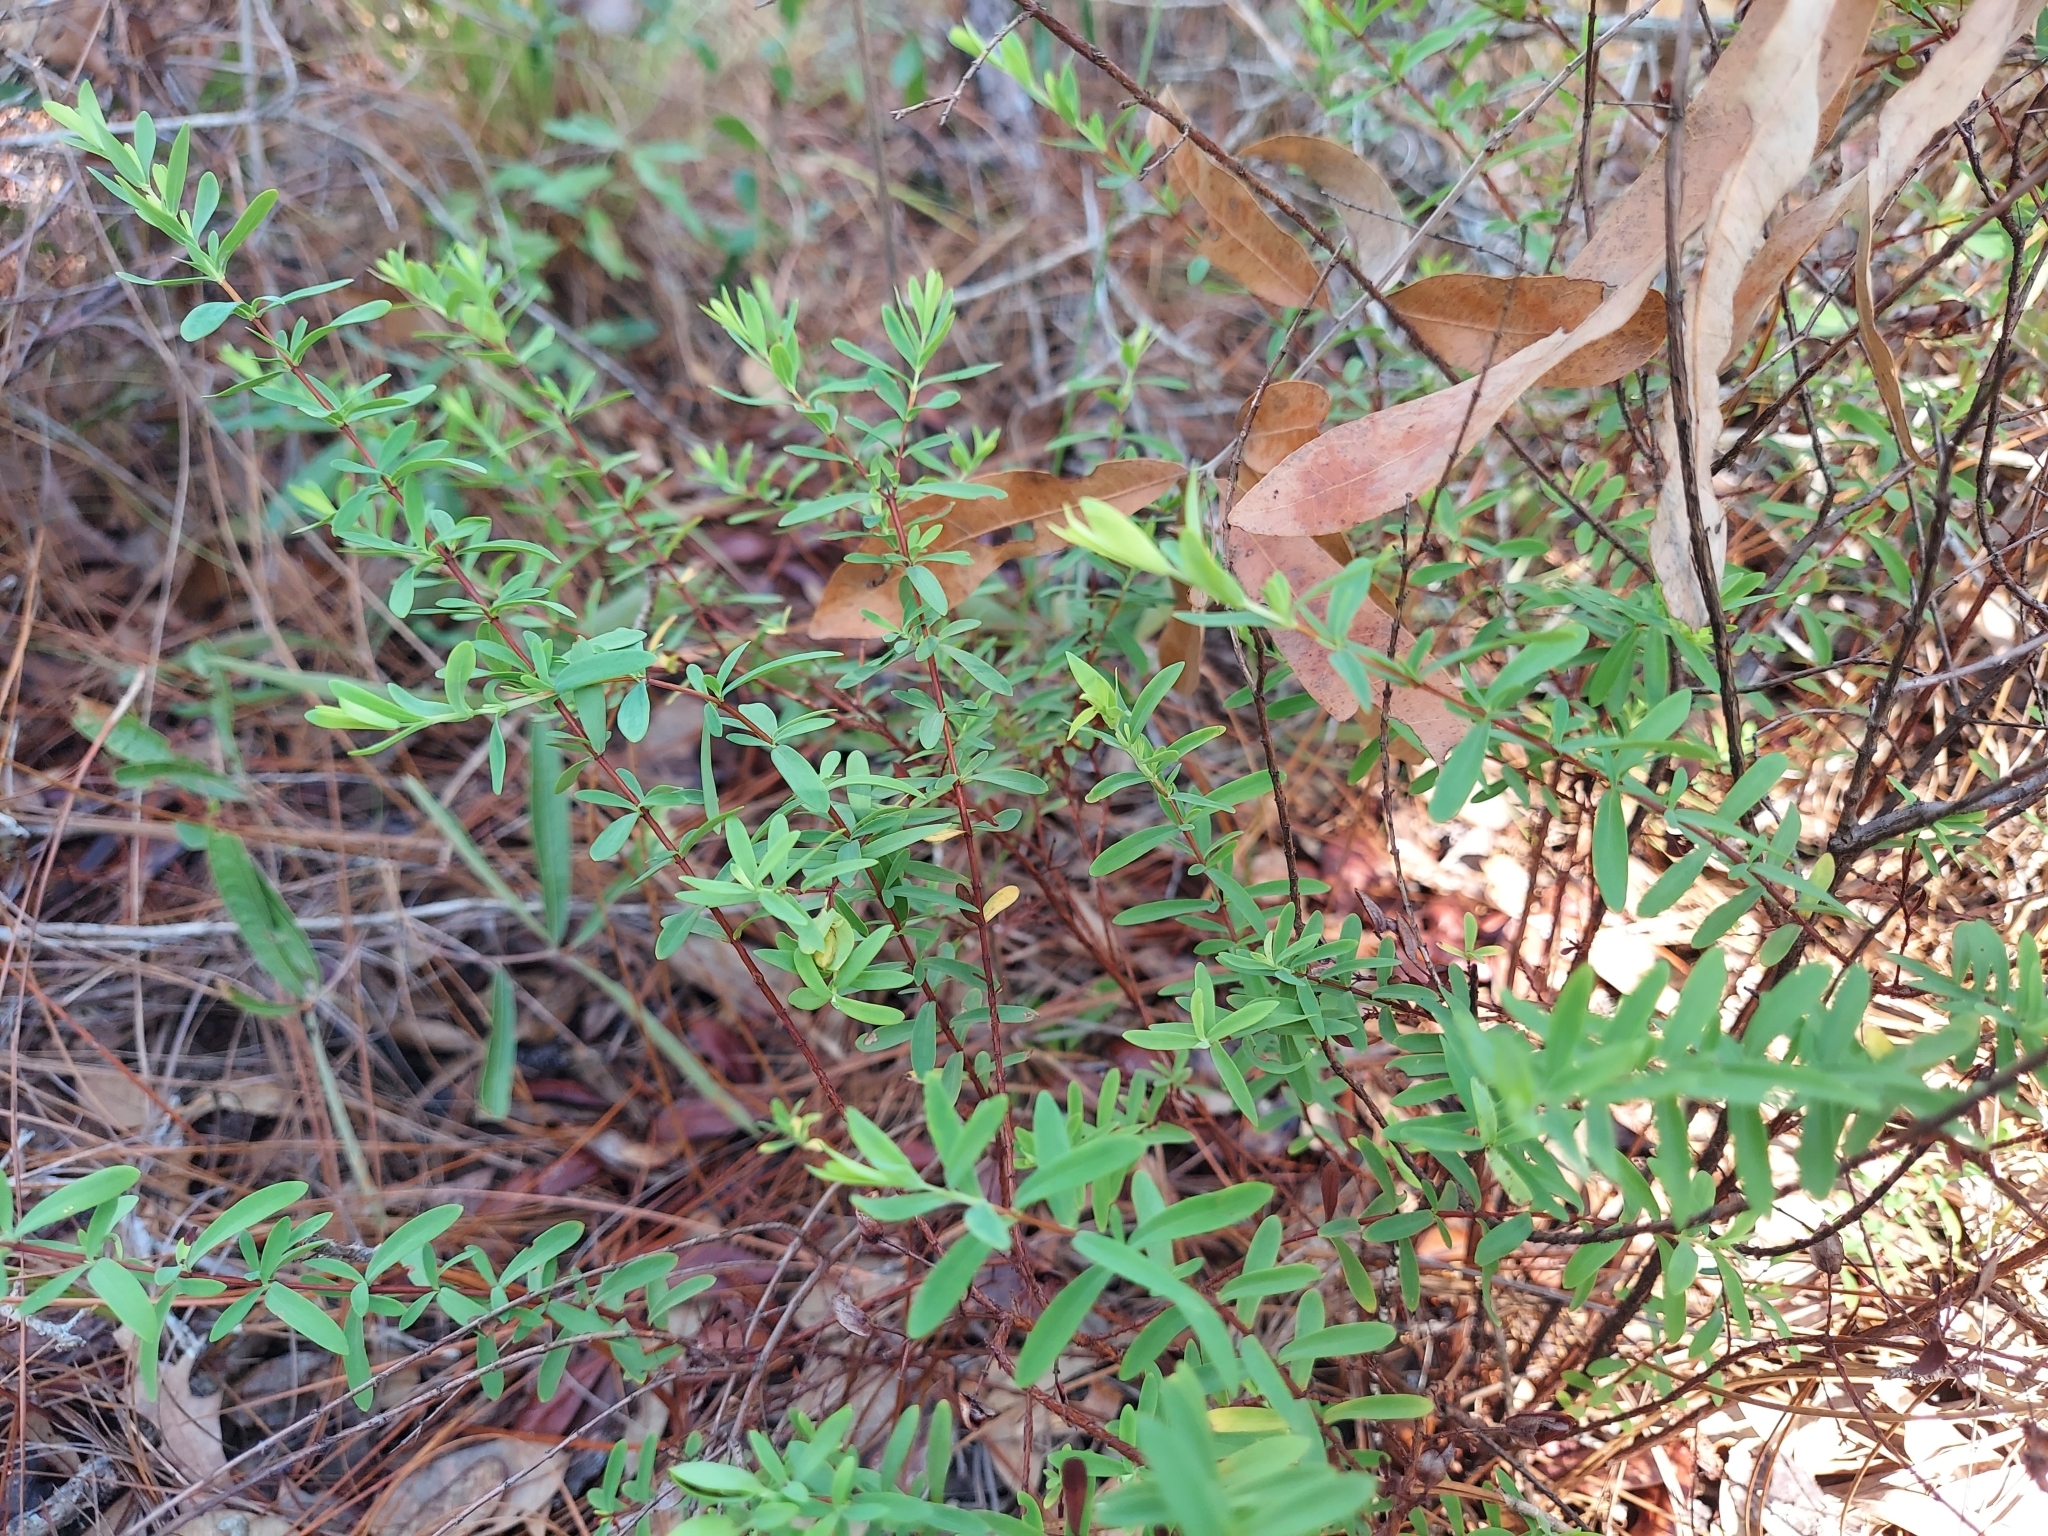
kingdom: Plantae
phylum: Tracheophyta
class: Magnoliopsida
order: Malpighiales
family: Hypericaceae
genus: Hypericum
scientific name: Hypericum hypericoides
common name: St. andrew's cross
